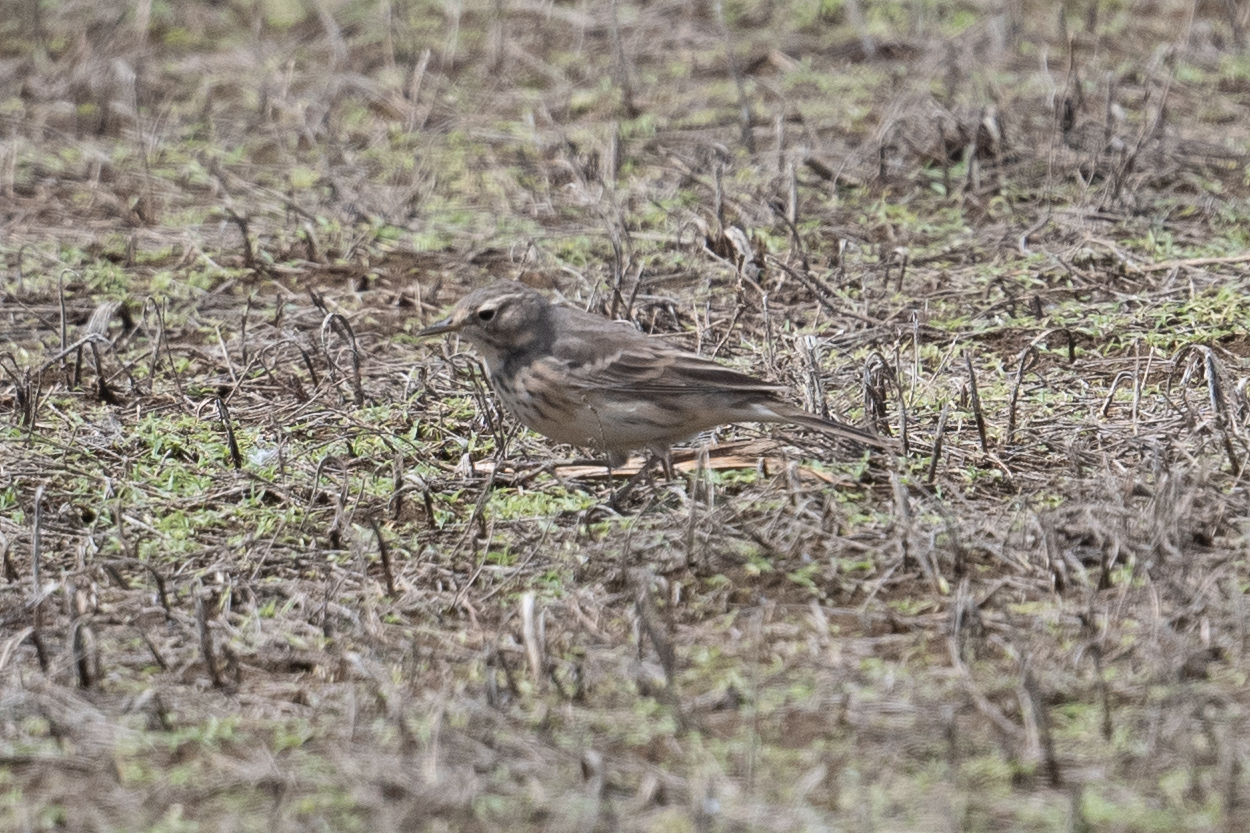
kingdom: Animalia
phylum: Chordata
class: Aves
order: Passeriformes
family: Motacillidae
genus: Anthus
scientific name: Anthus rubescens
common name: Buff-bellied pipit
